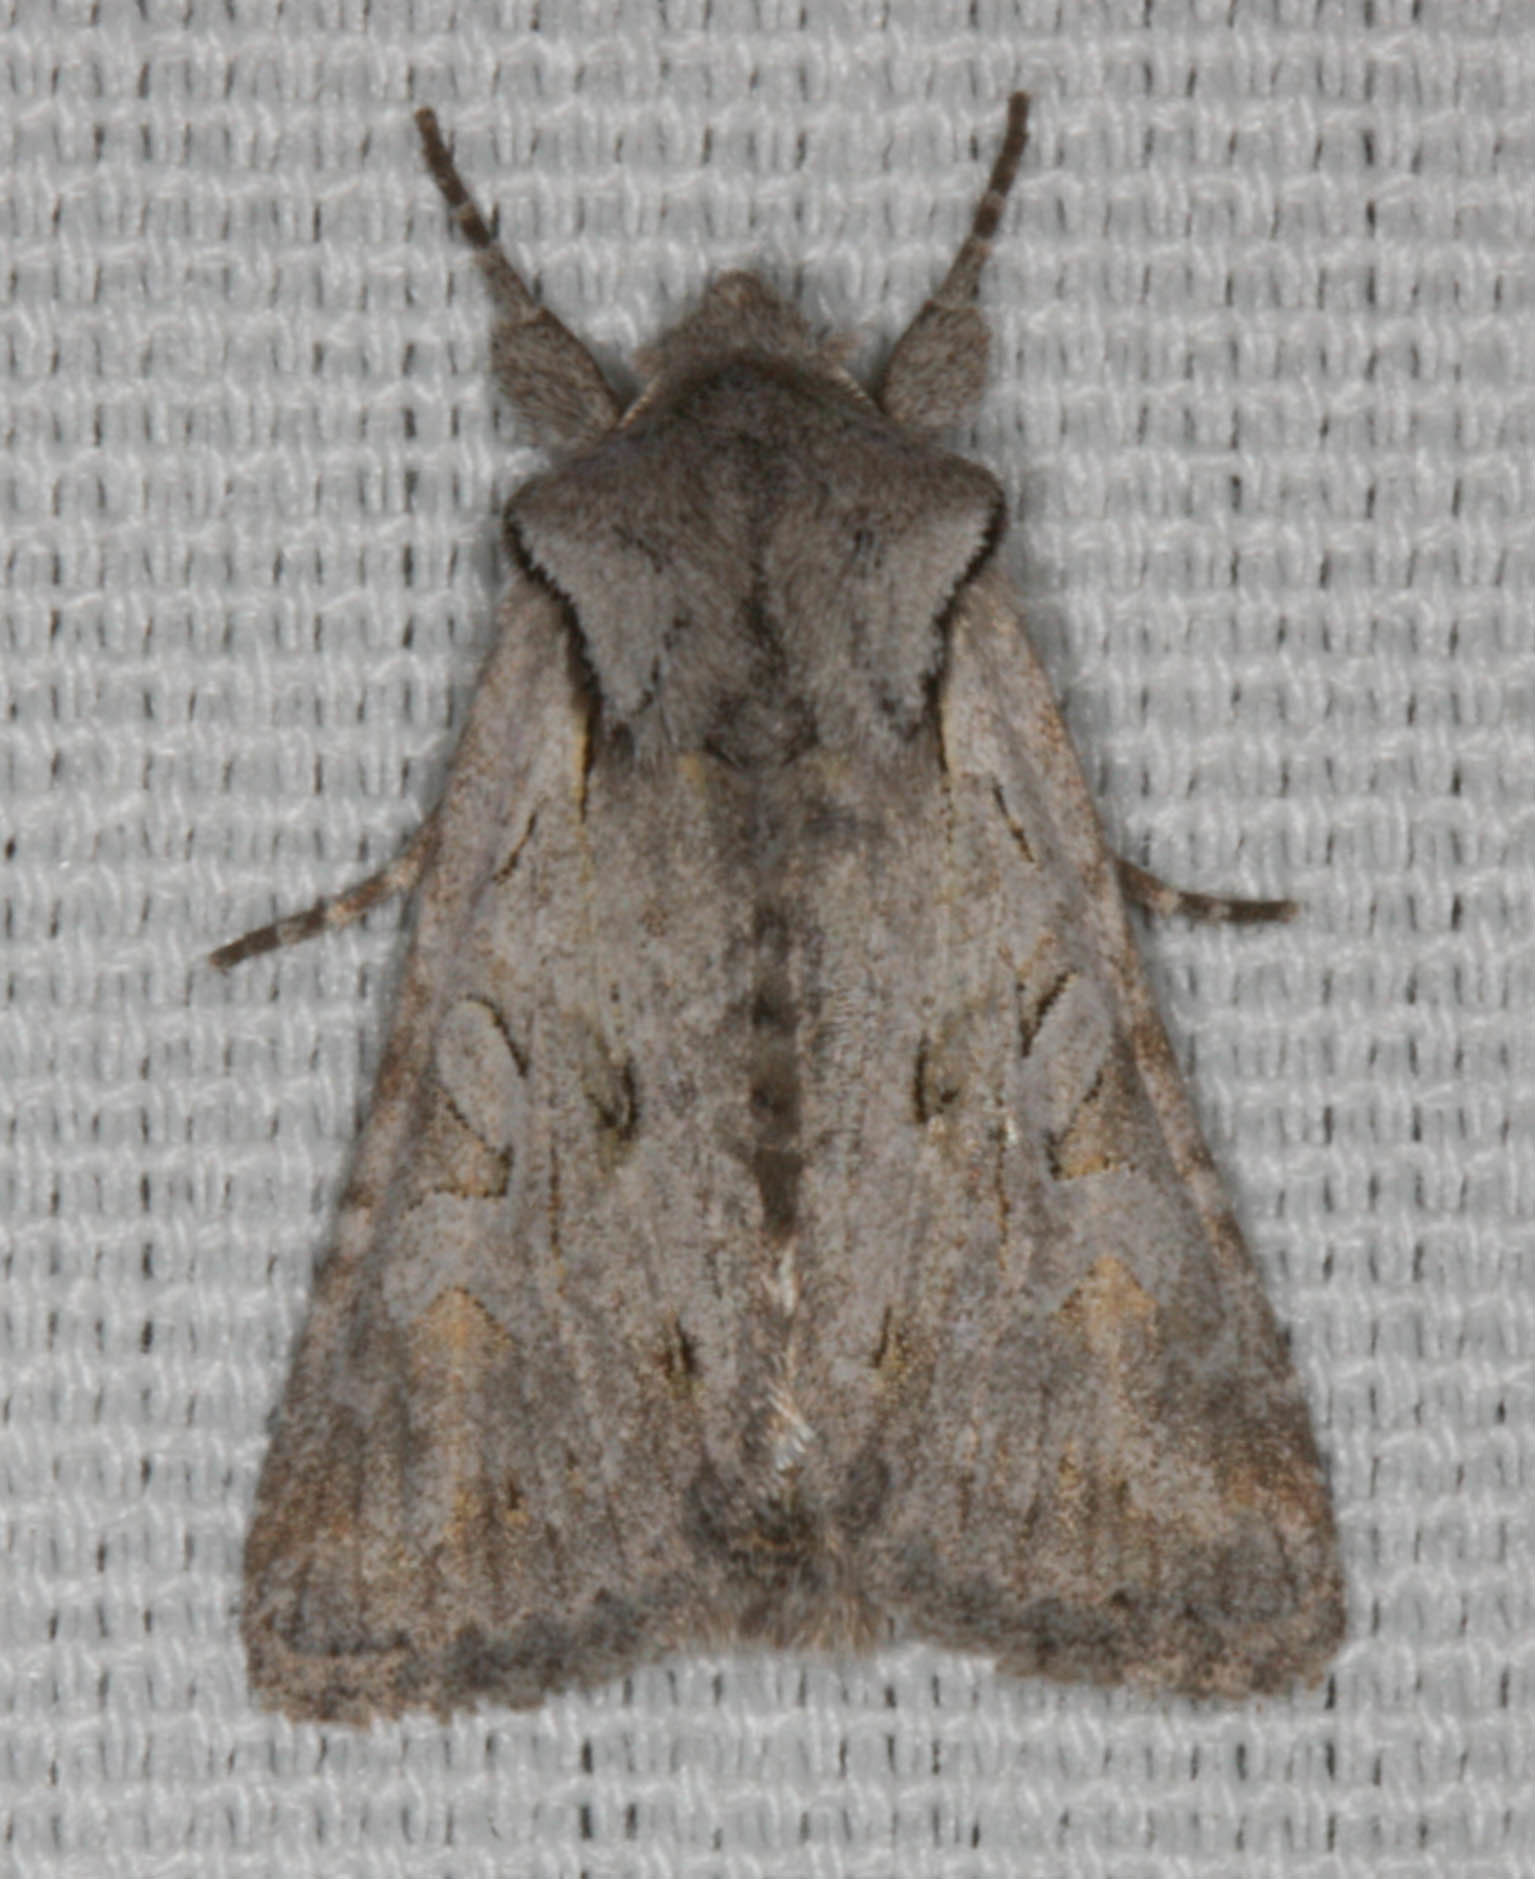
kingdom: Animalia
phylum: Arthropoda
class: Insecta
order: Lepidoptera
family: Noctuidae
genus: Lacinipolia
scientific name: Lacinipolia patalis
